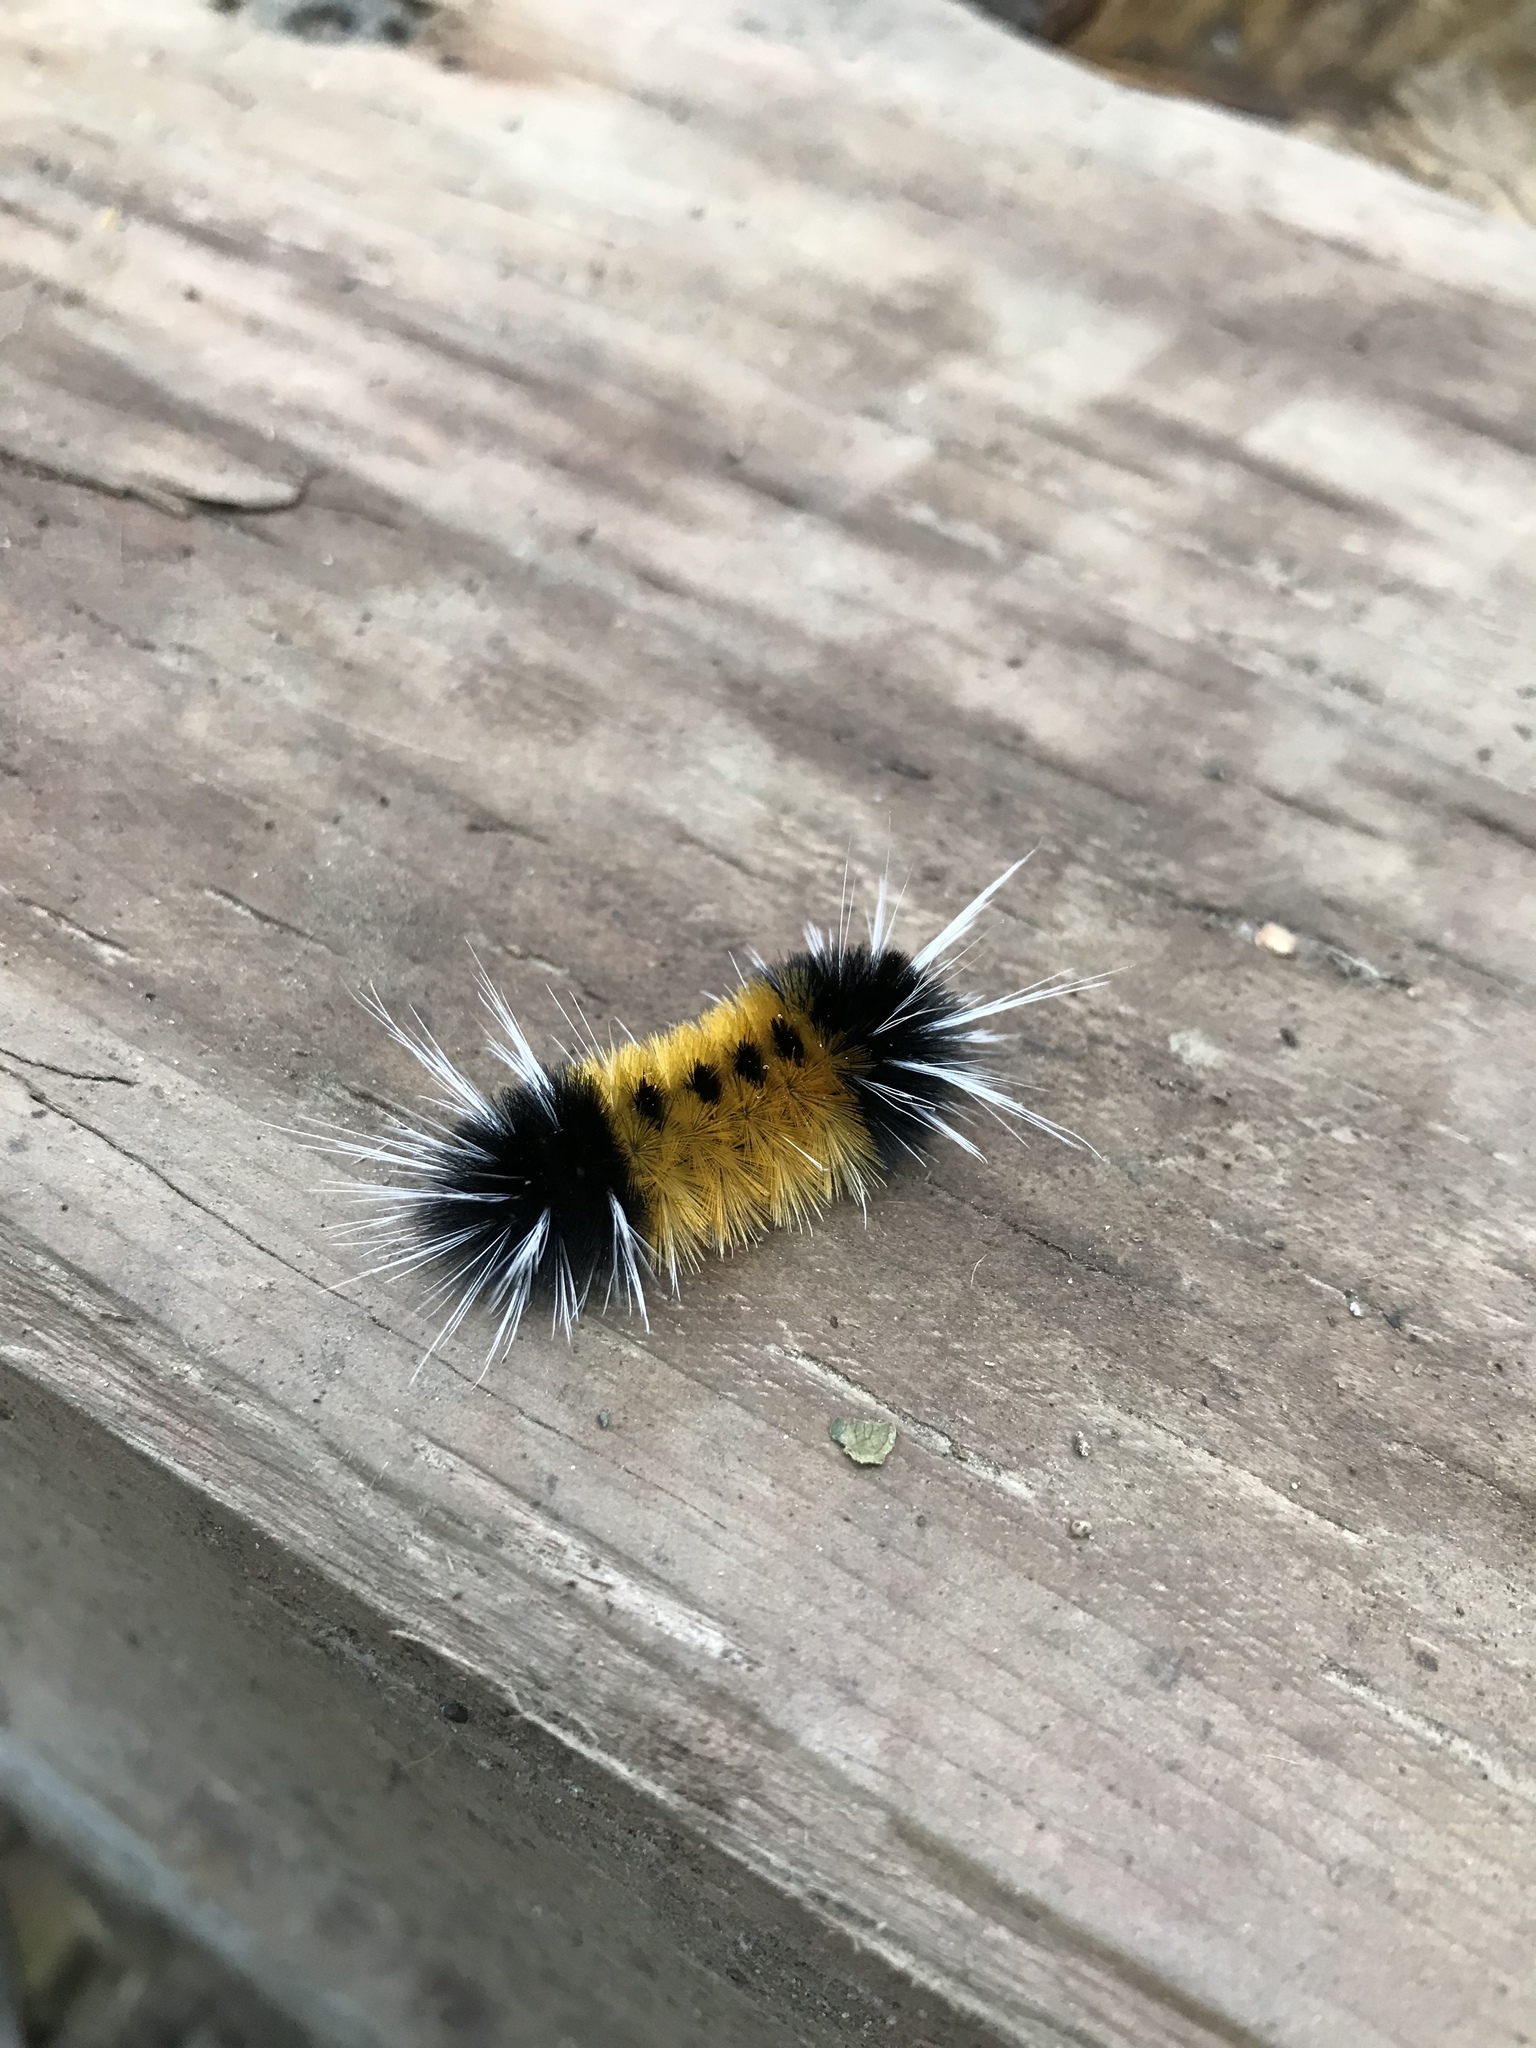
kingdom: Animalia
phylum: Arthropoda
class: Insecta
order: Lepidoptera
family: Erebidae
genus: Lophocampa
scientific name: Lophocampa maculata
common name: Spotted tussock moth
